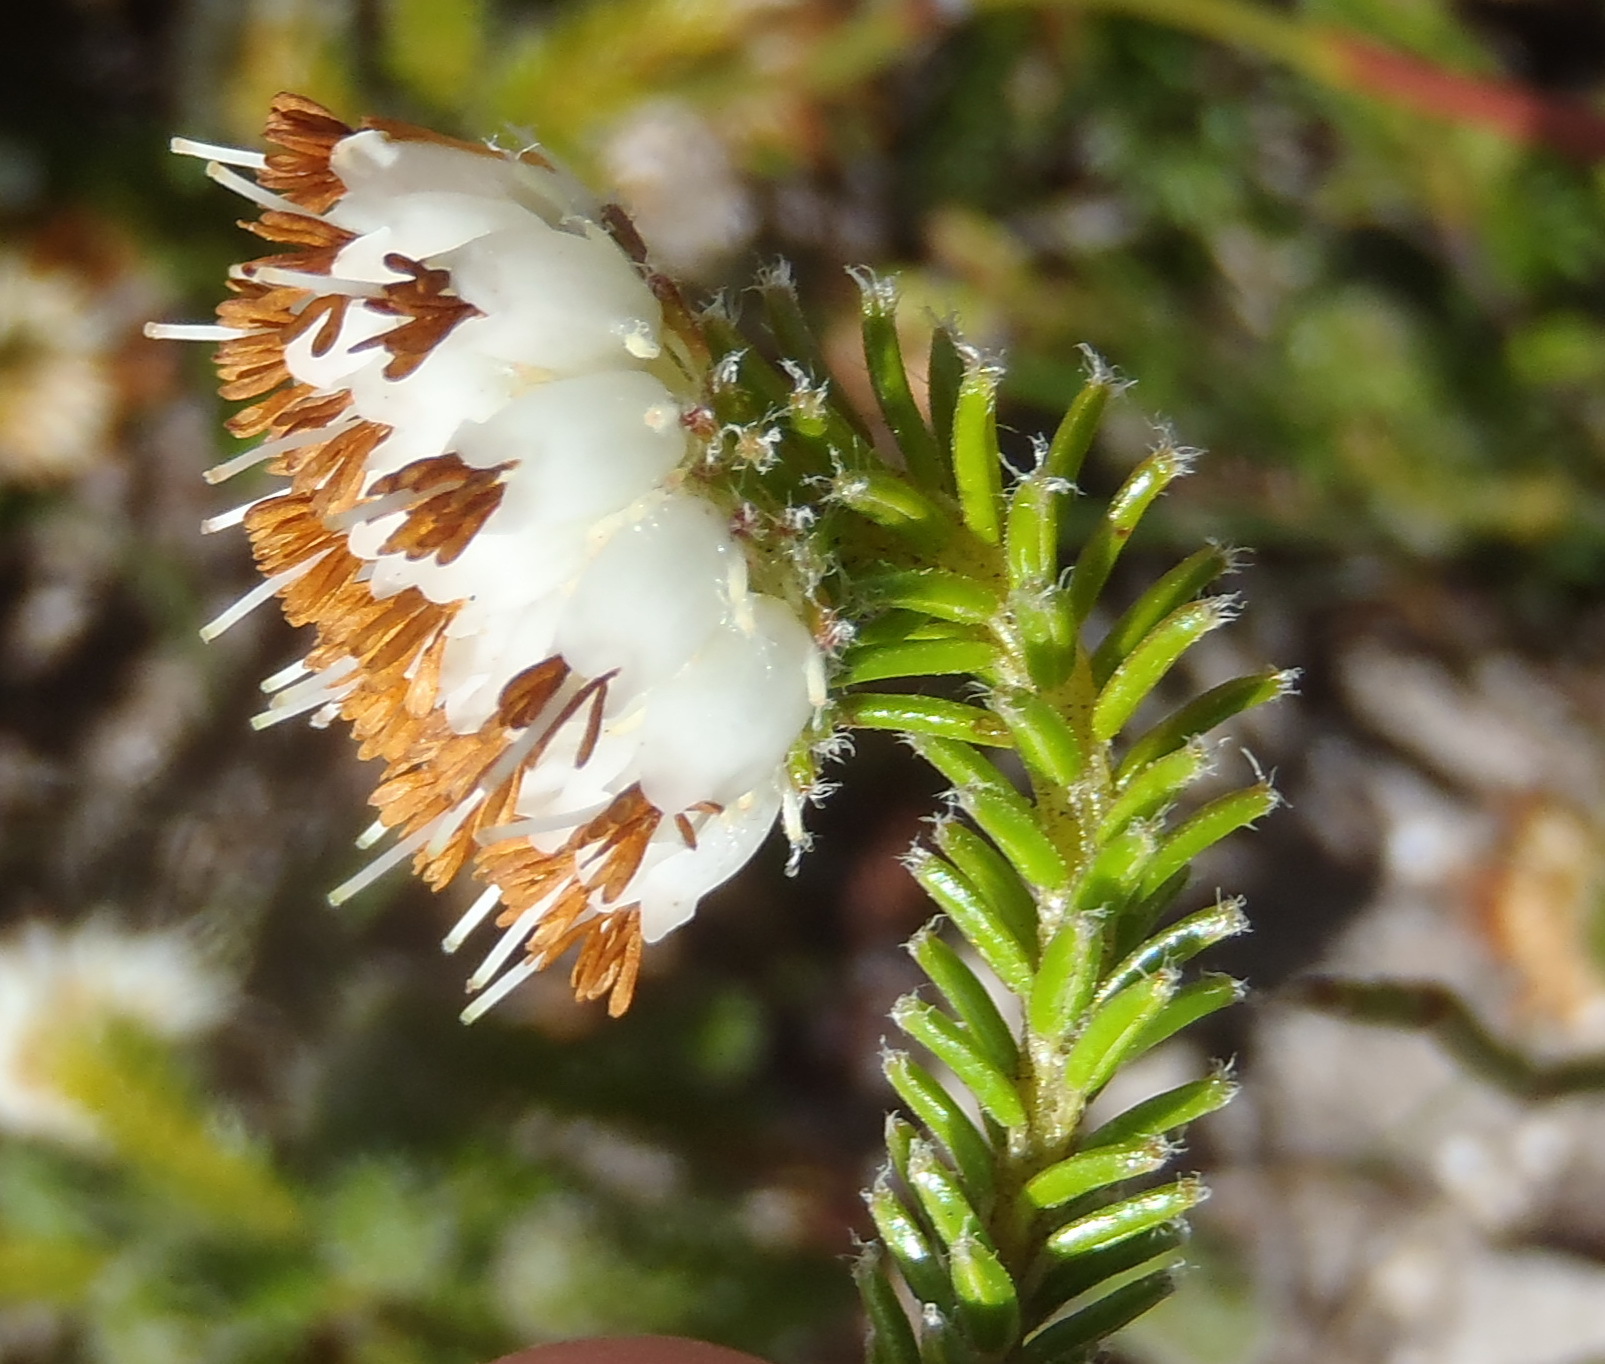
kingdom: Plantae
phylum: Tracheophyta
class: Magnoliopsida
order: Ericales
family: Ericaceae
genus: Erica
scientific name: Erica bruniifolia
